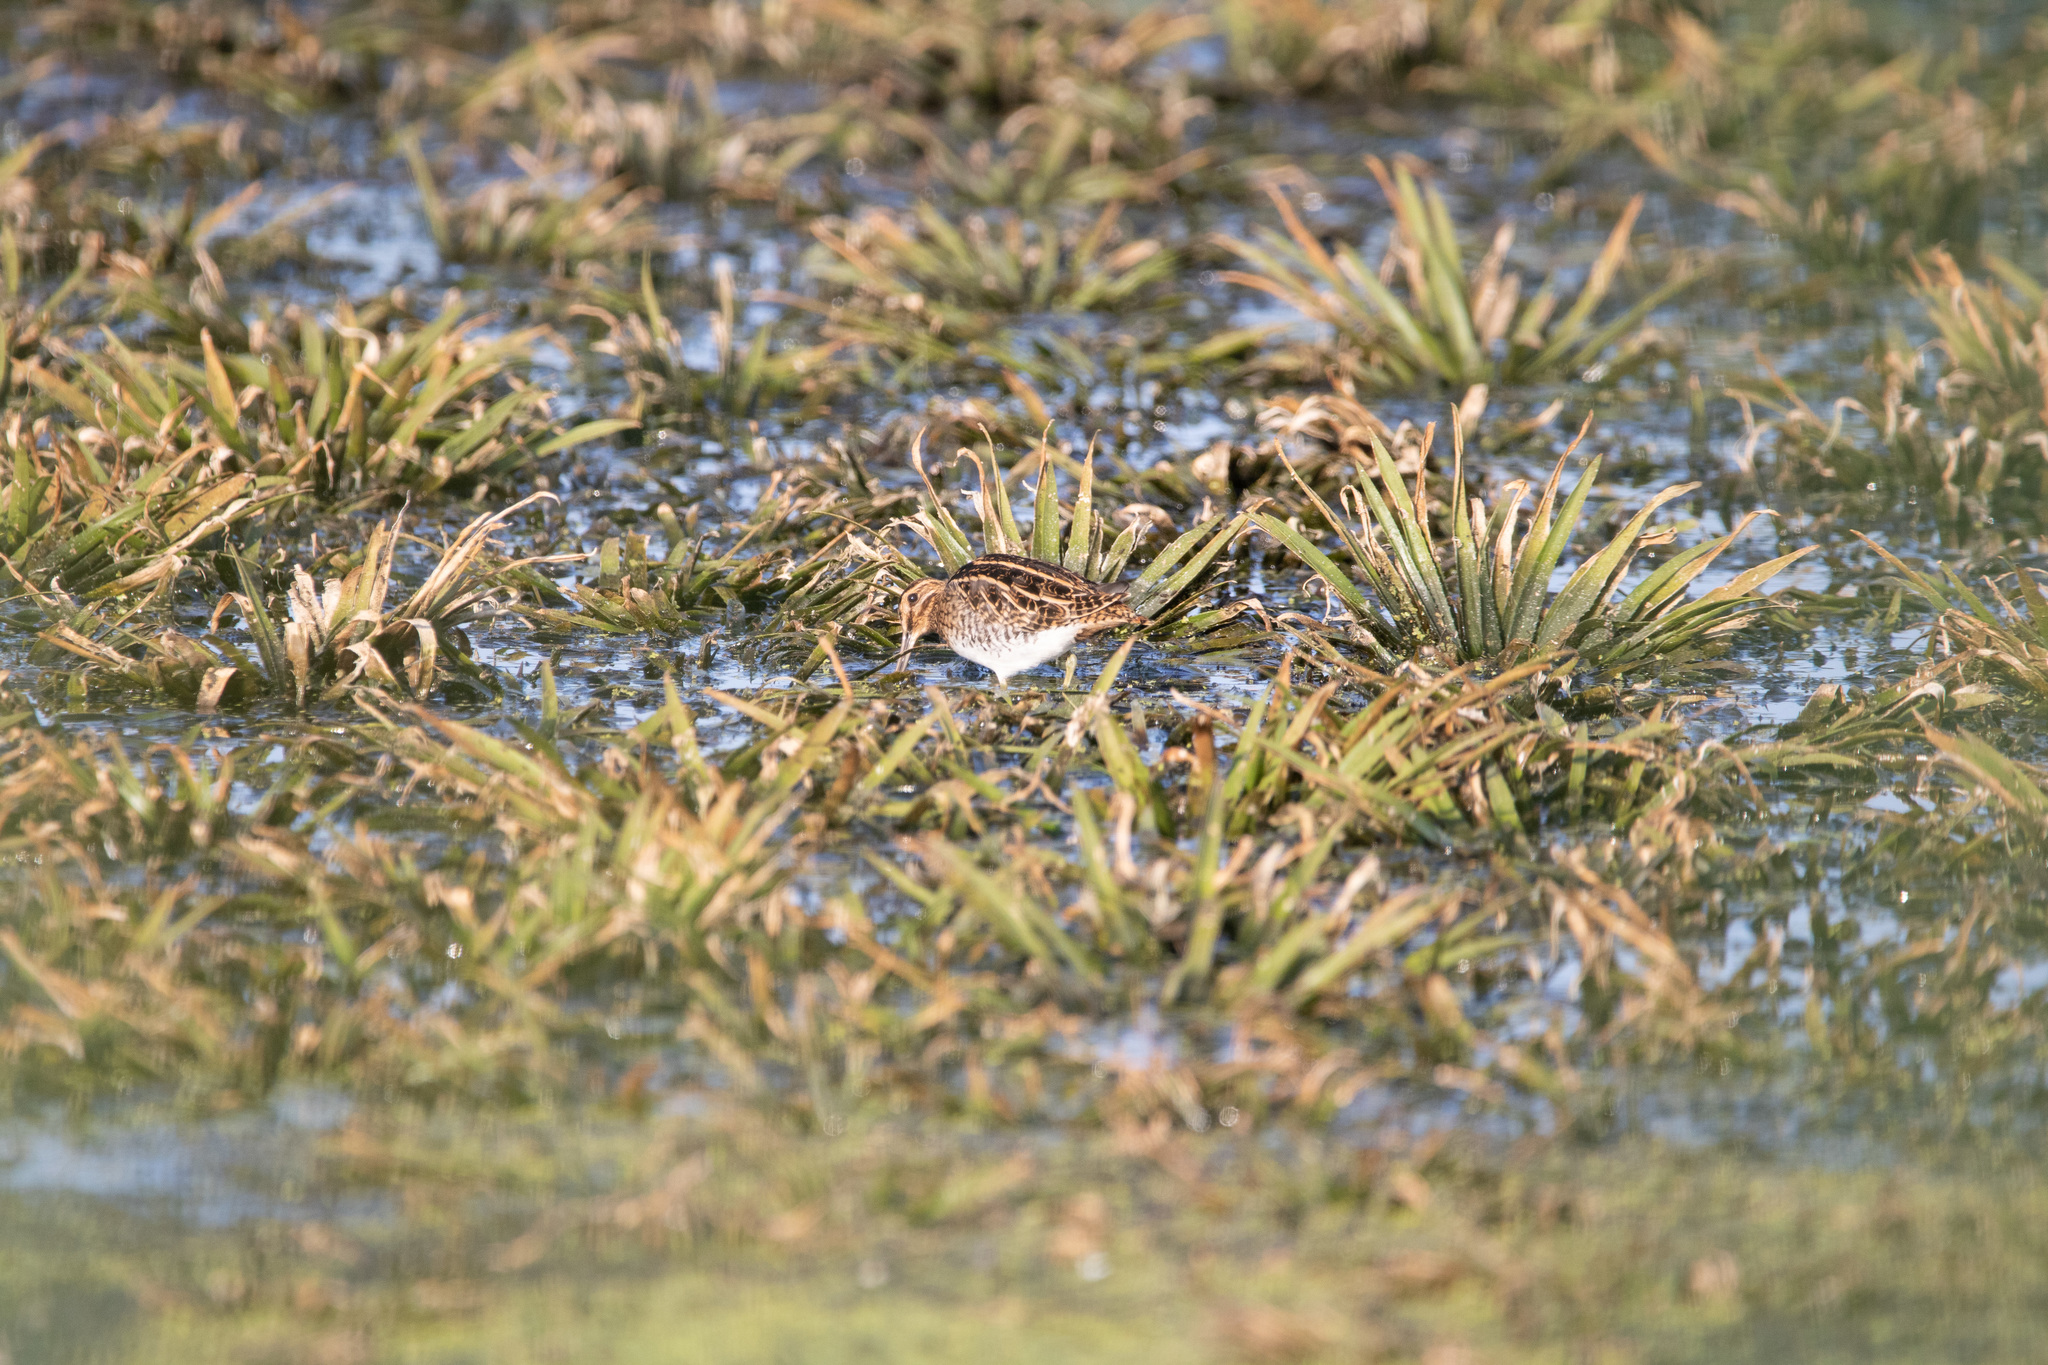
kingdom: Animalia
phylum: Chordata
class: Aves
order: Charadriiformes
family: Scolopacidae
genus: Gallinago
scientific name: Gallinago gallinago
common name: Common snipe
